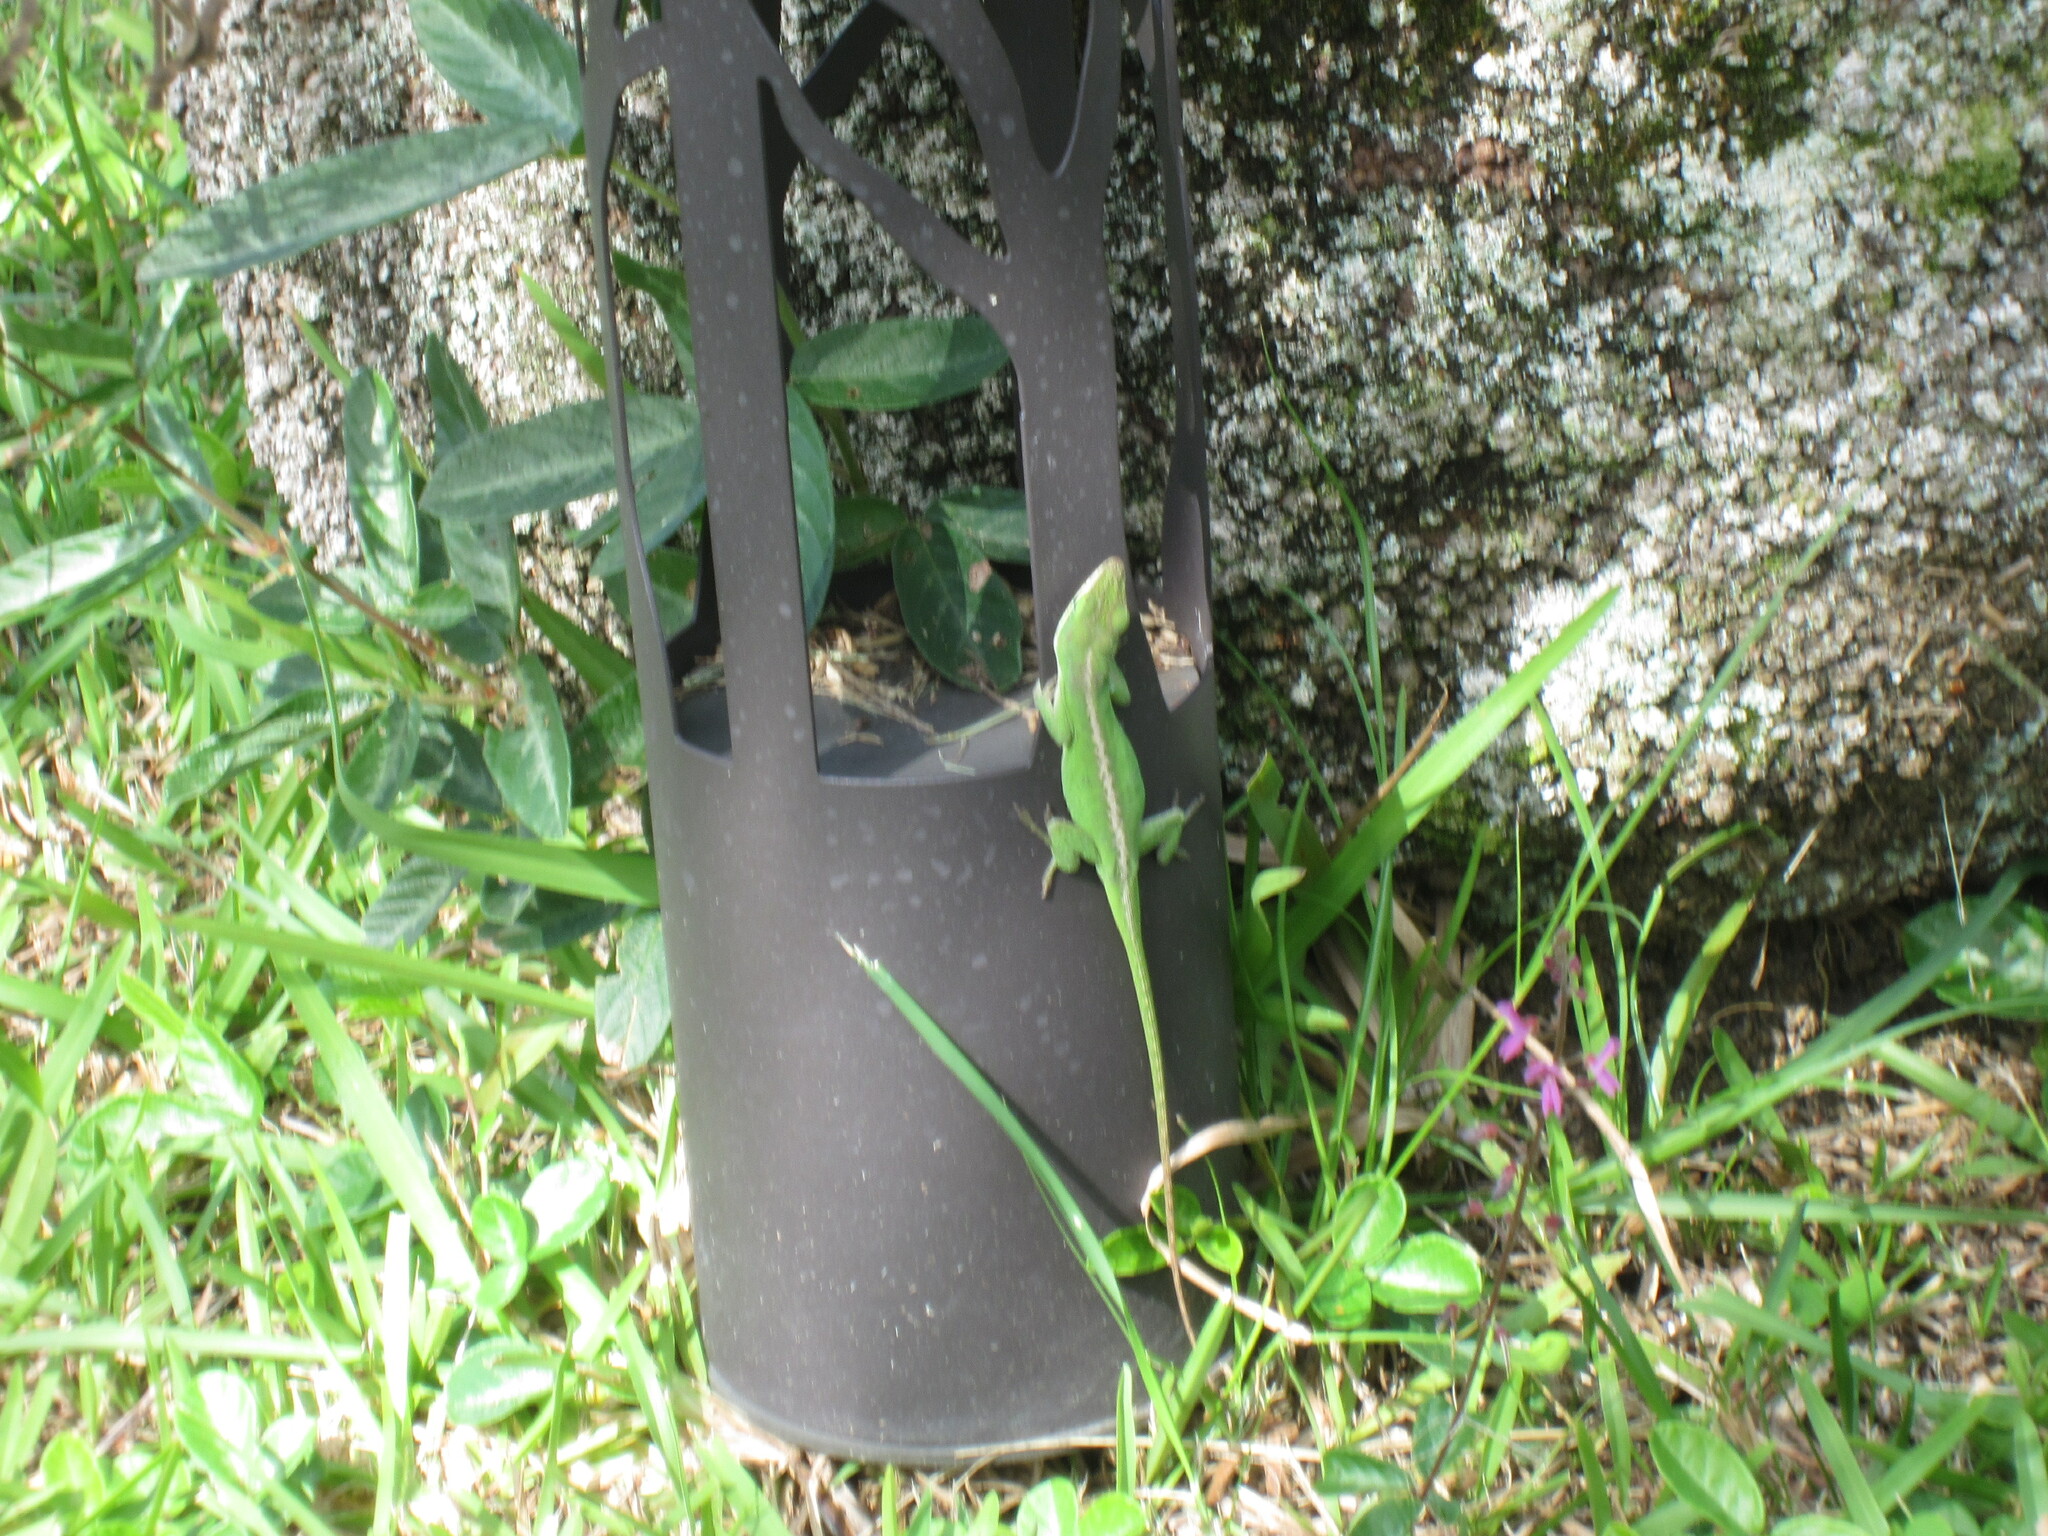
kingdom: Animalia
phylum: Chordata
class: Squamata
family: Dactyloidae
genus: Anolis
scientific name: Anolis carolinensis
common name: Green anole
